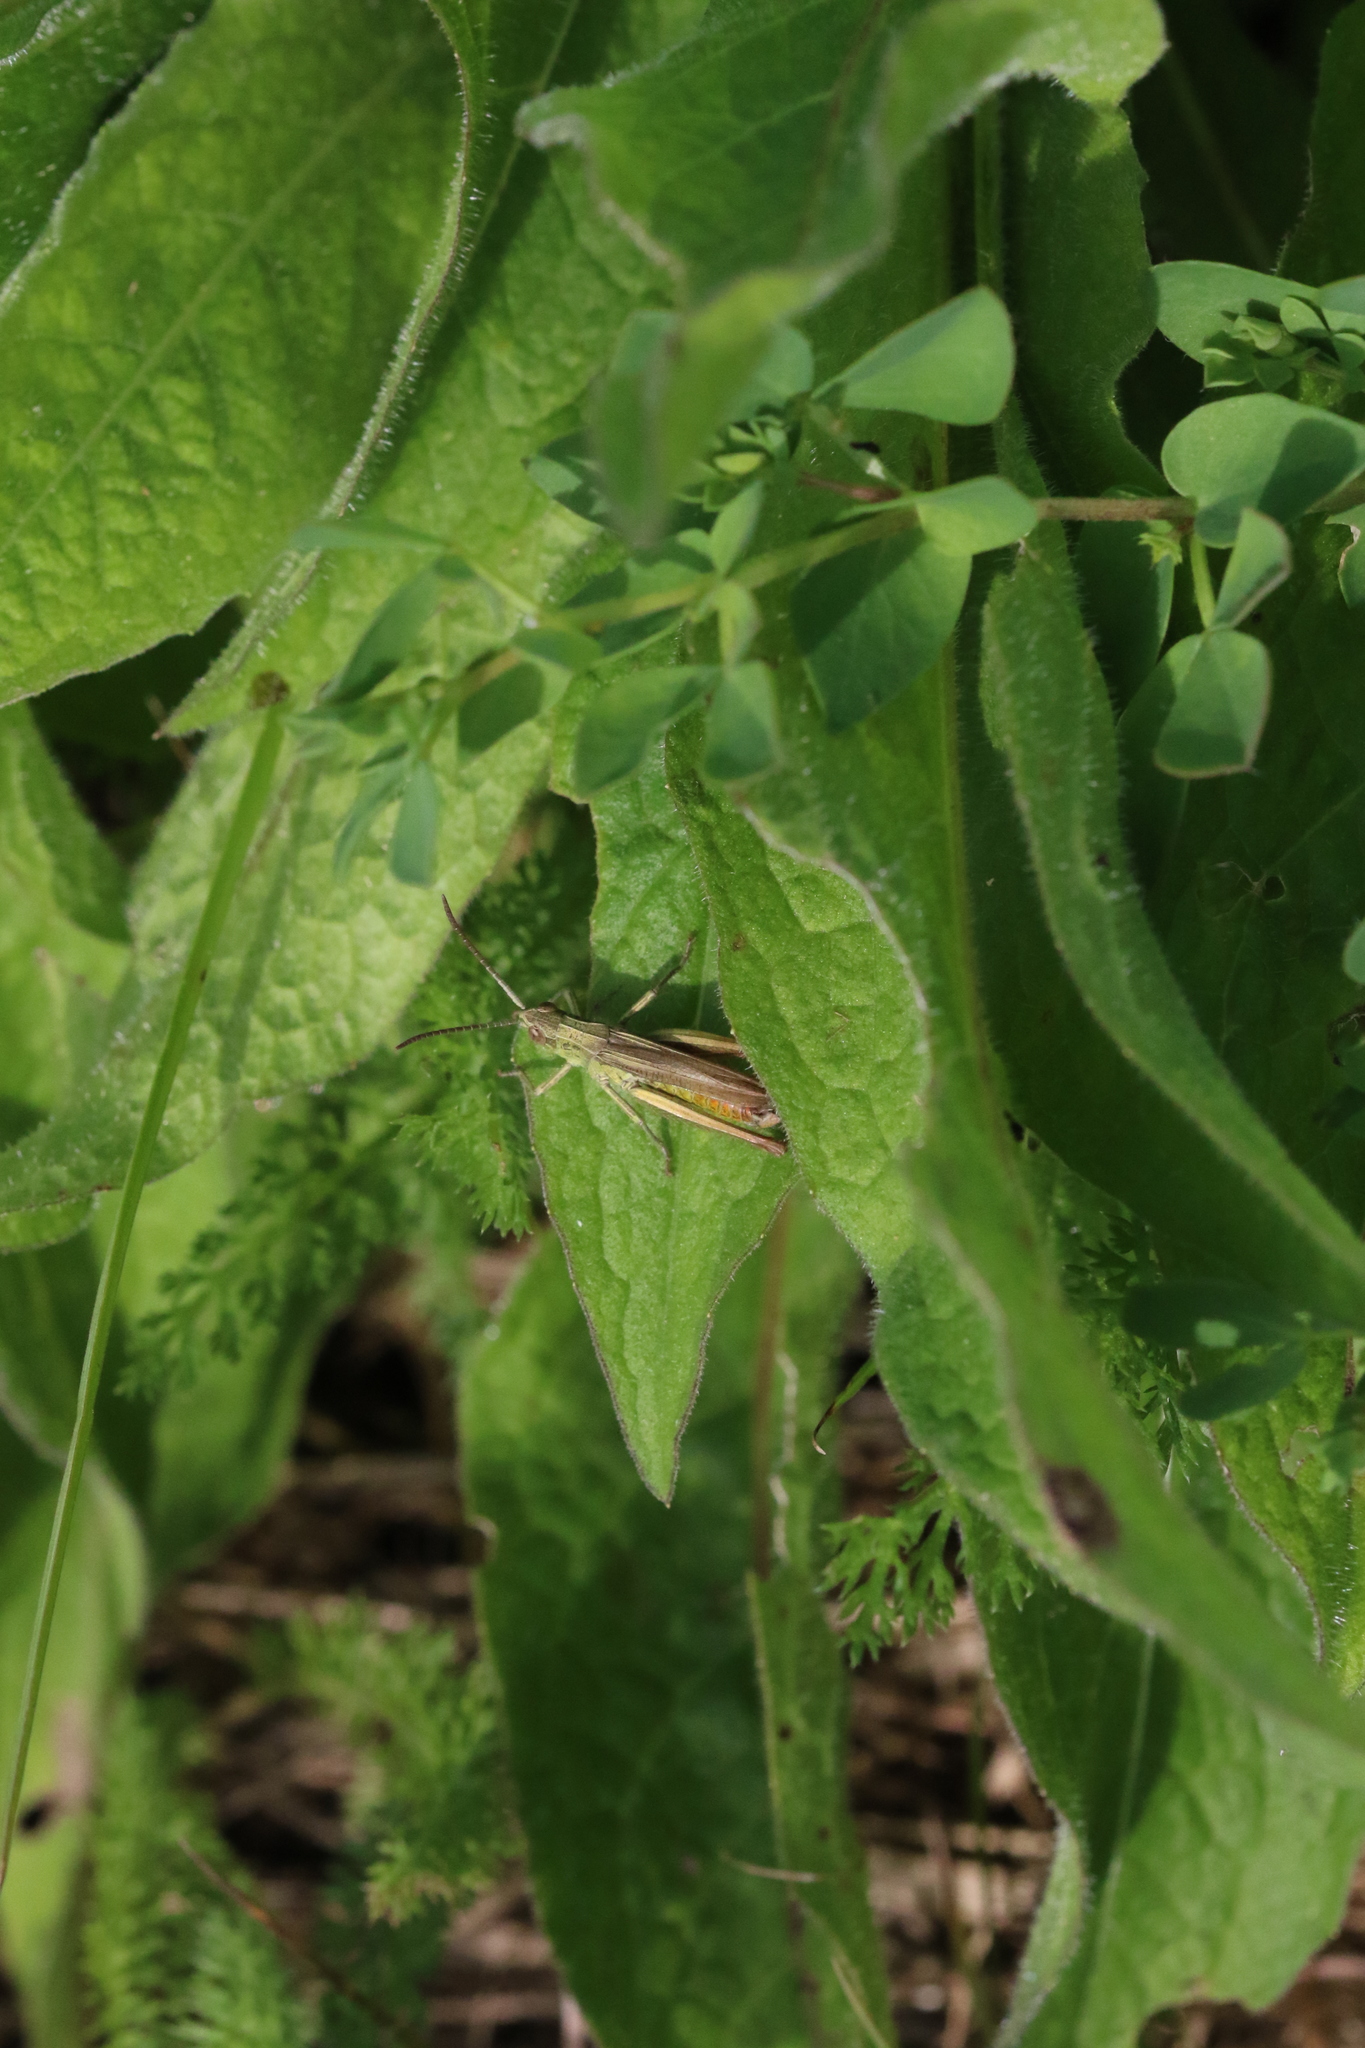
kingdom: Animalia
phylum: Arthropoda
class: Insecta
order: Orthoptera
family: Acrididae
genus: Chorthippus
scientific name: Chorthippus dorsatus
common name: Steppe grasshopper
